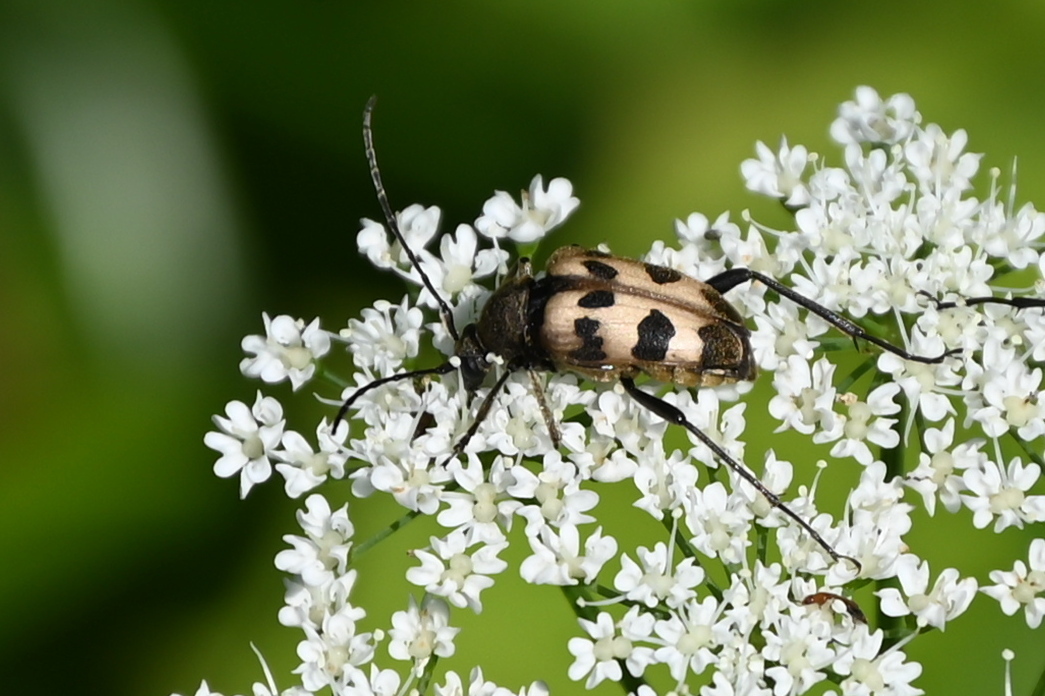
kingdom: Animalia
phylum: Arthropoda
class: Insecta
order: Coleoptera
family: Cerambycidae
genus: Pachytodes
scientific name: Pachytodes cerambyciformis
